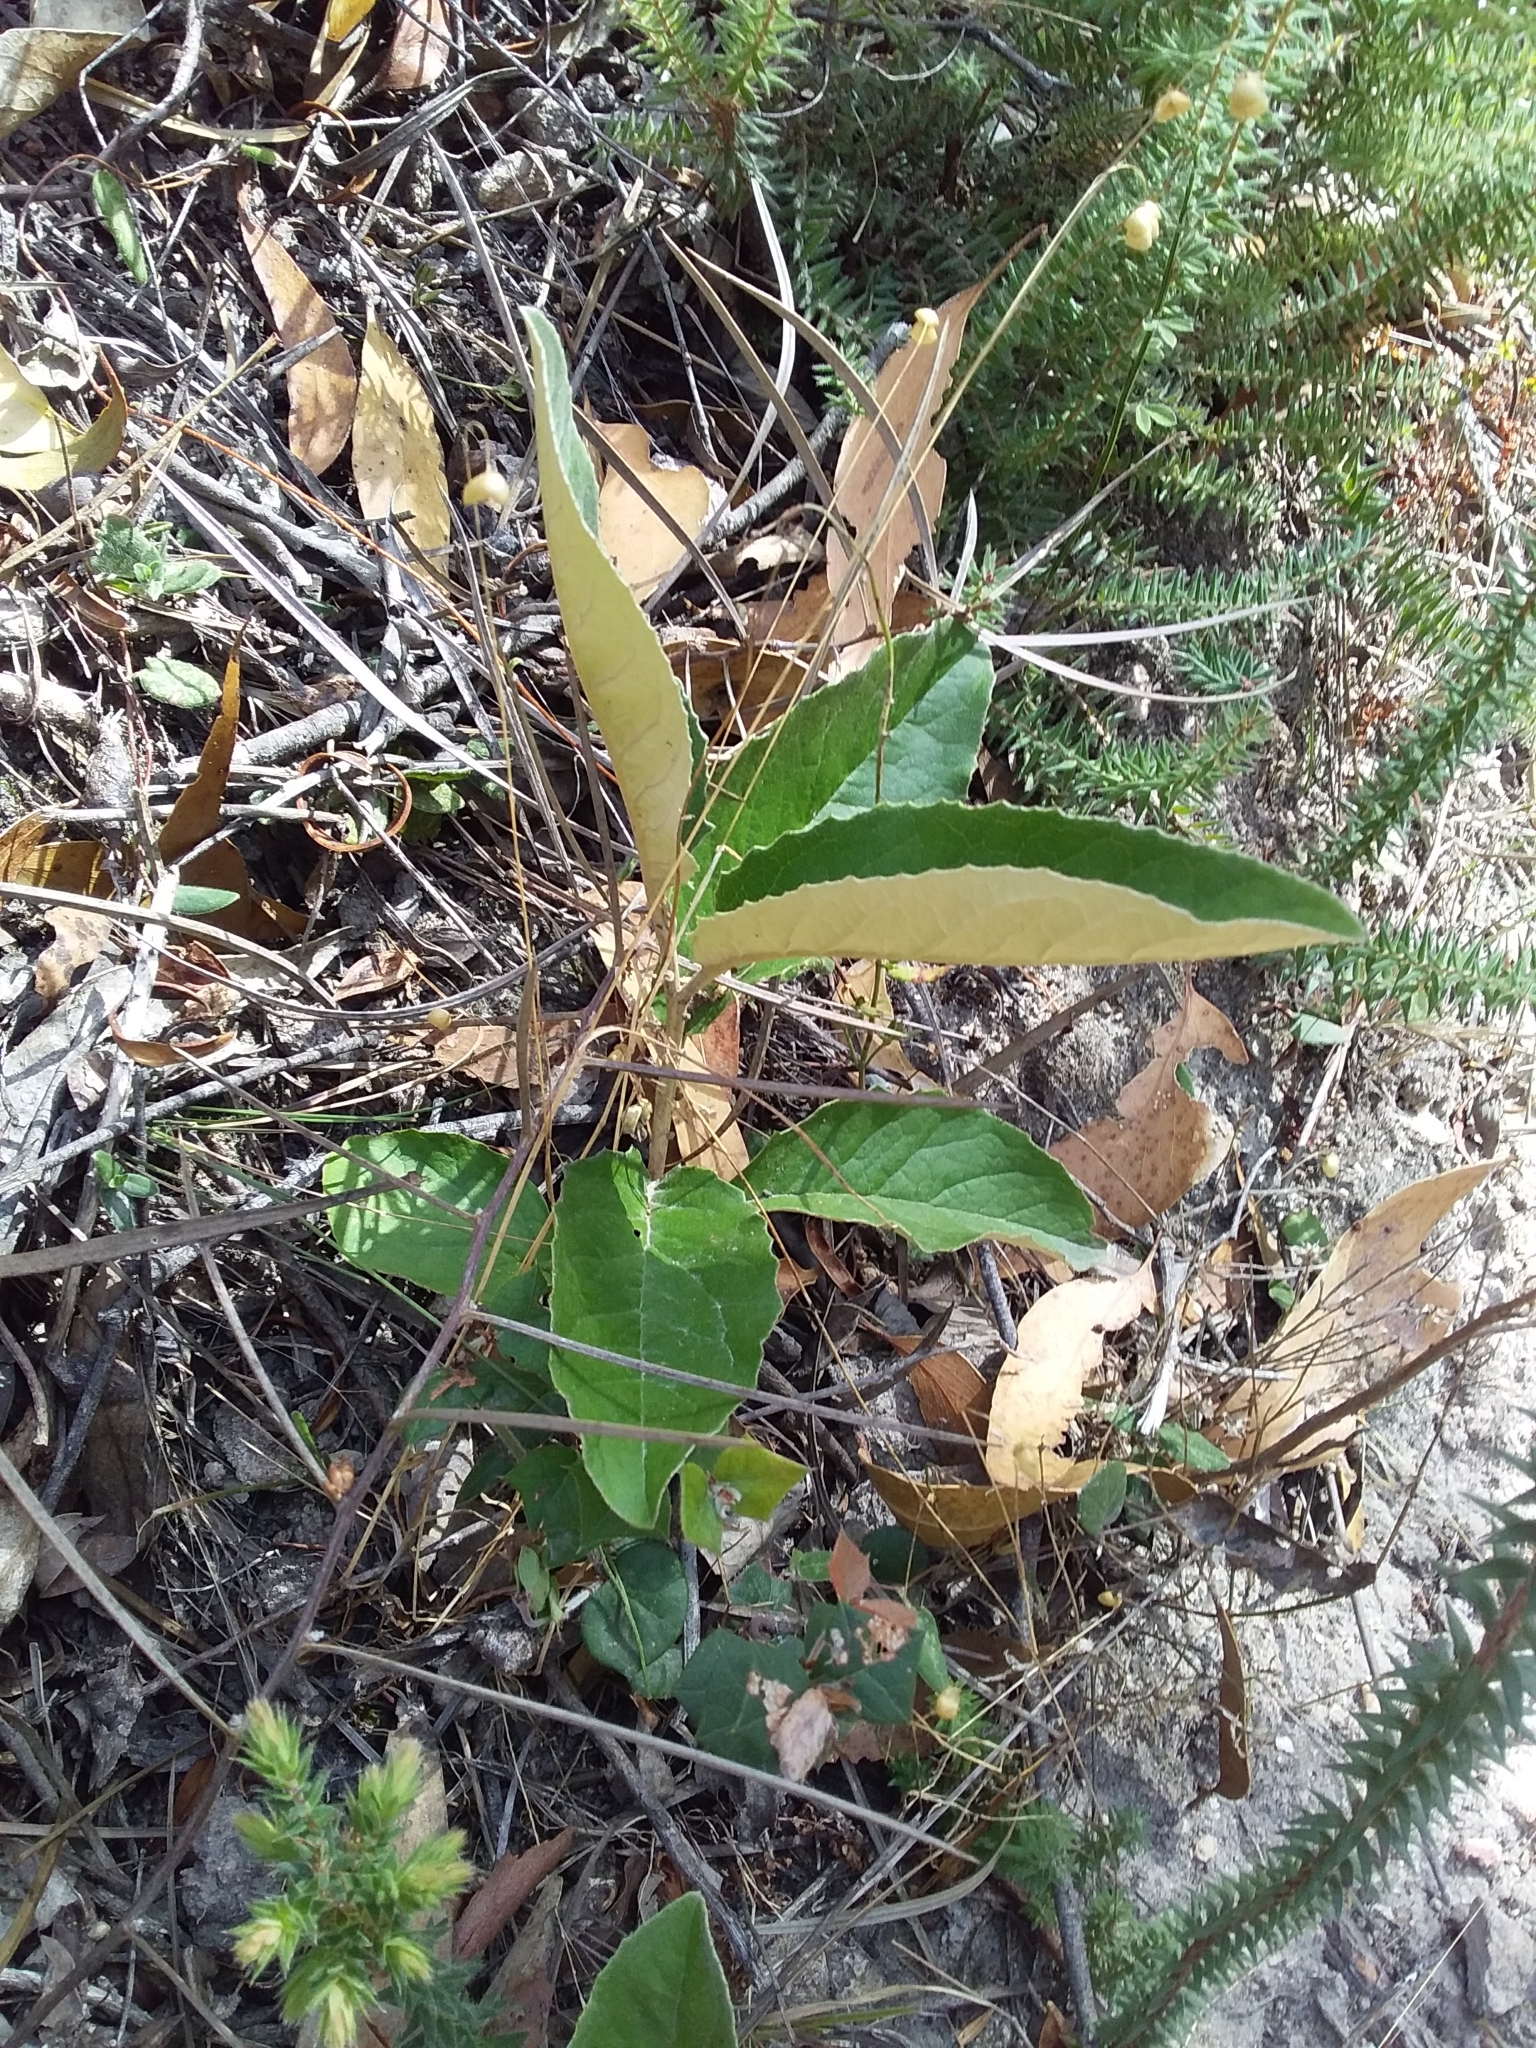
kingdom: Plantae
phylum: Tracheophyta
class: Magnoliopsida
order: Asterales
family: Asteraceae
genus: Olearia
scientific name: Olearia grandiflora
